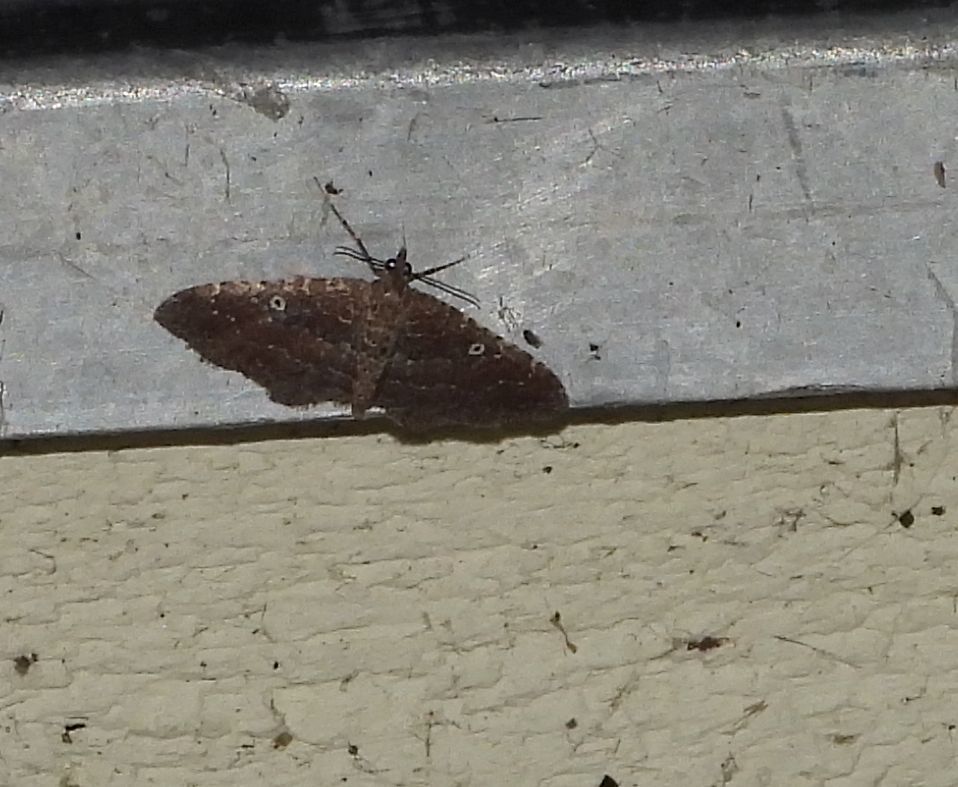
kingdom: Animalia
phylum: Arthropoda
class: Insecta
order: Lepidoptera
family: Geometridae
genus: Orthonama
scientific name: Orthonama obstipata
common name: The gem
